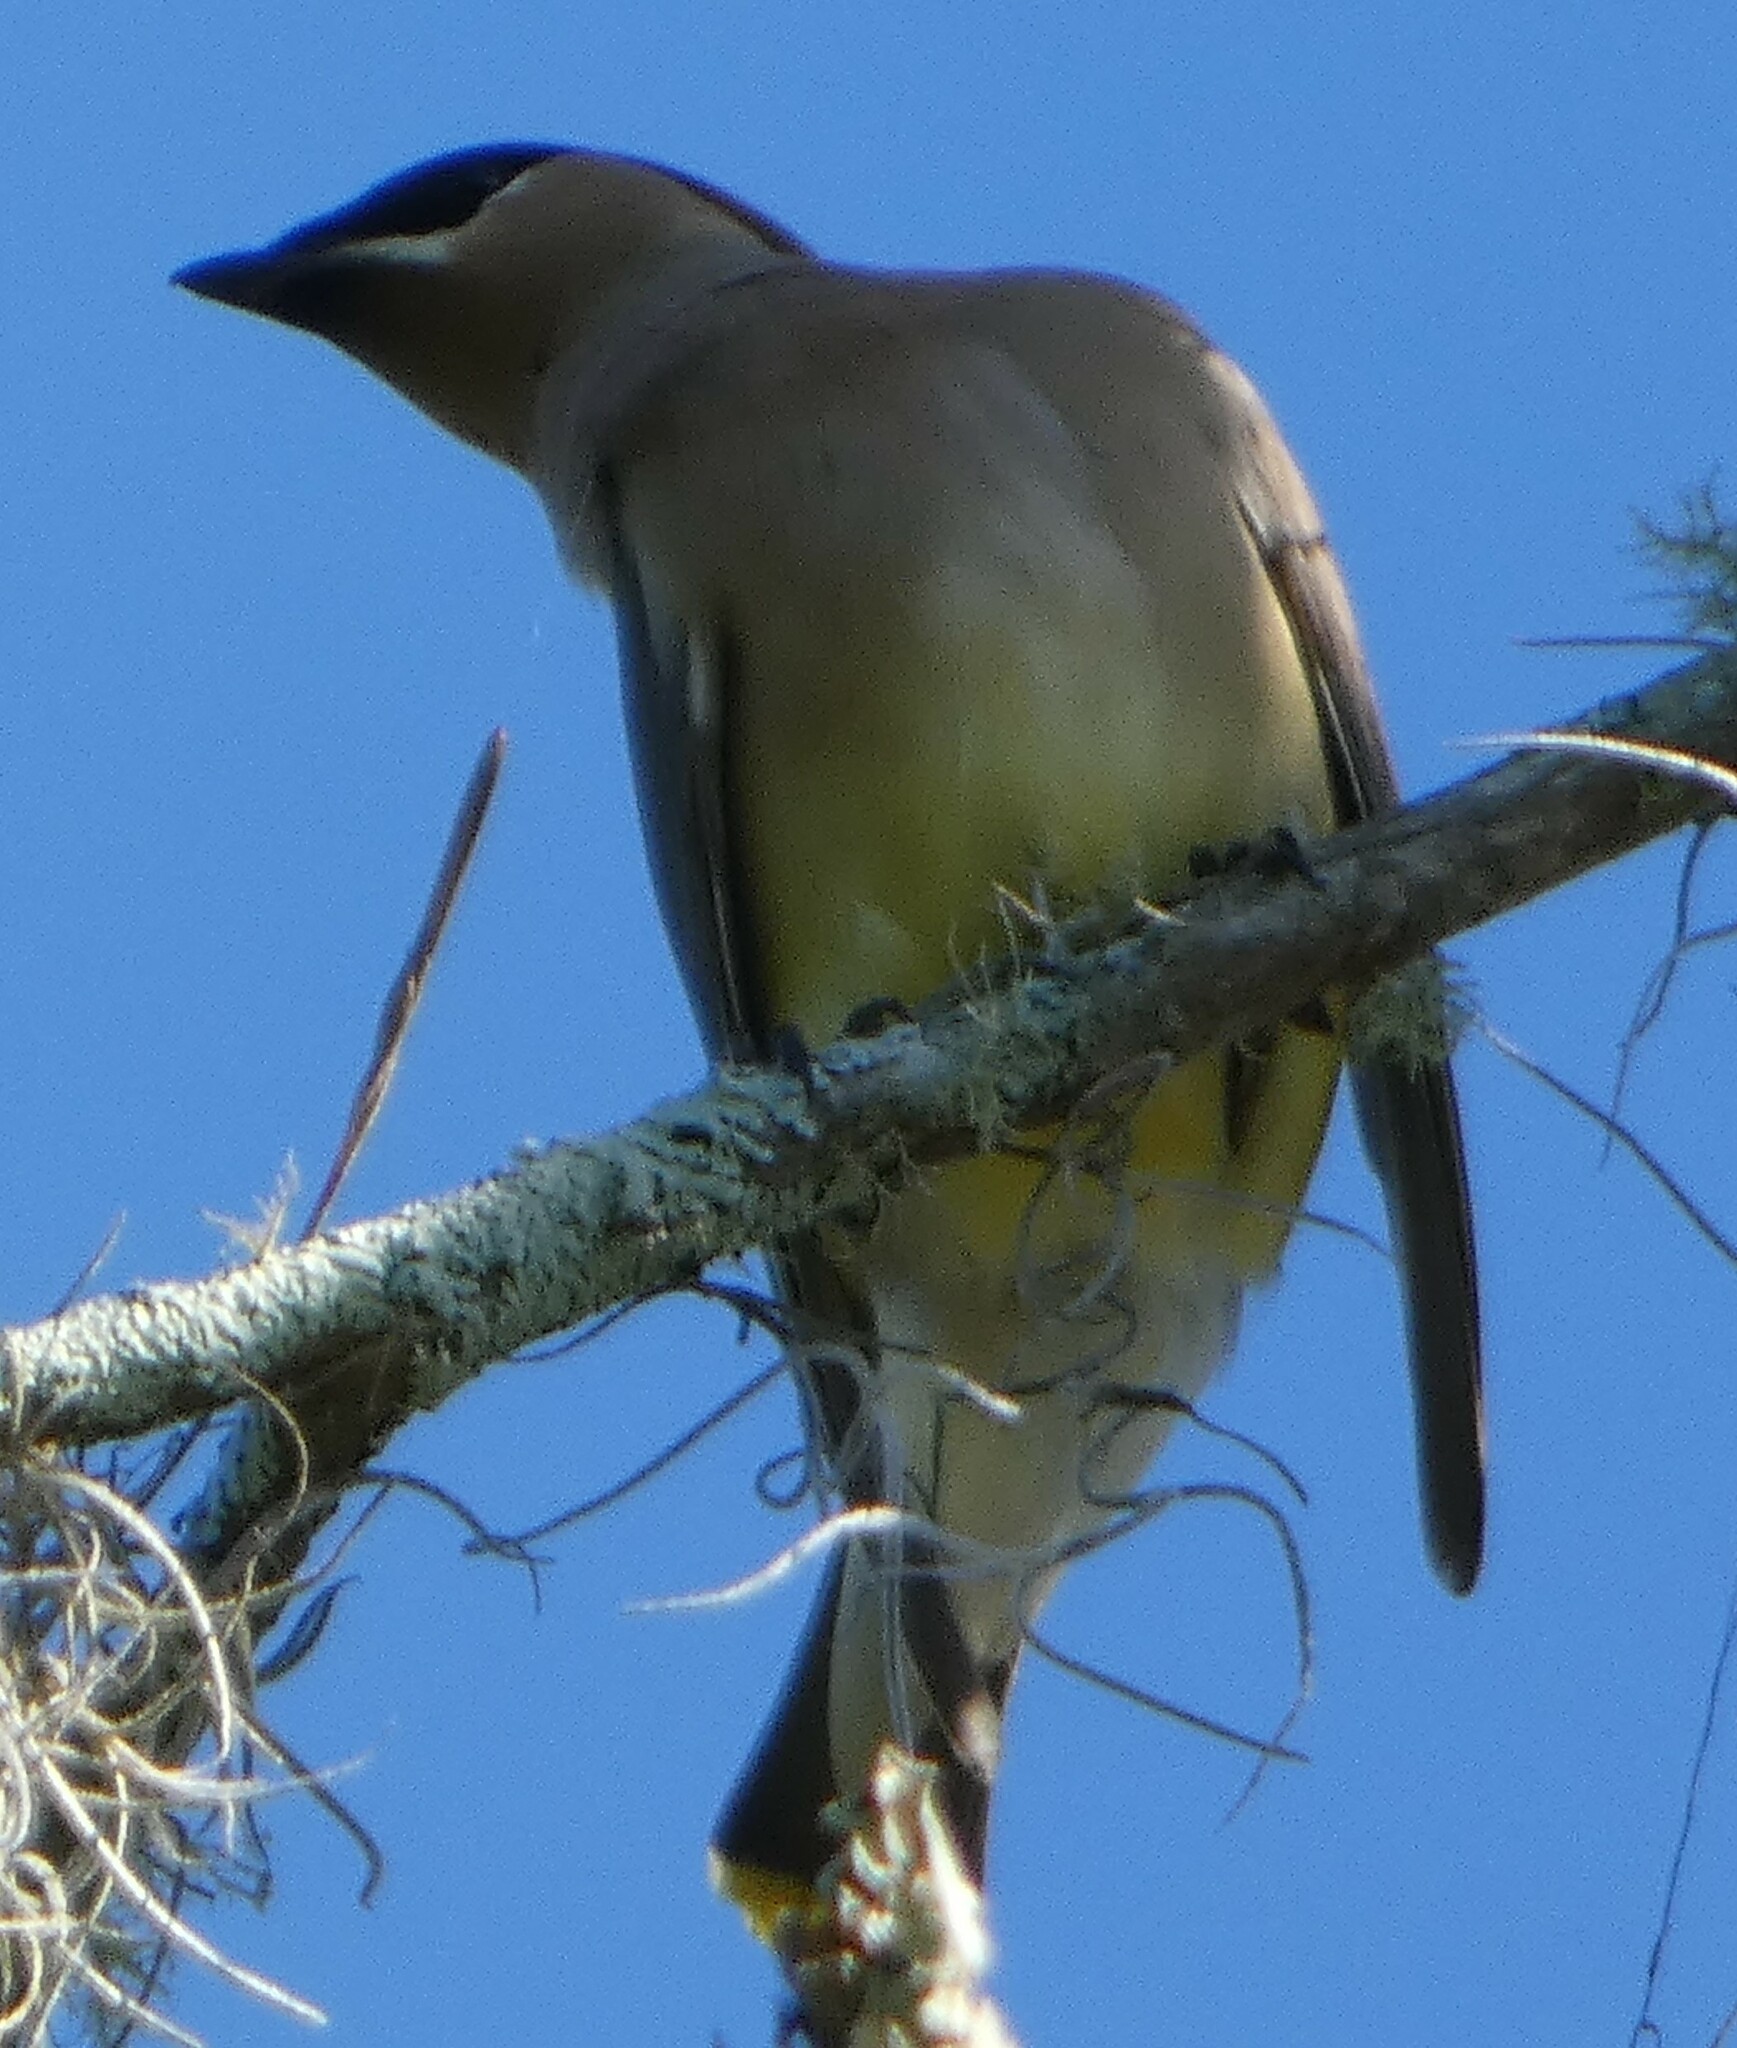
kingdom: Animalia
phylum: Chordata
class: Aves
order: Passeriformes
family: Bombycillidae
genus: Bombycilla
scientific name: Bombycilla cedrorum
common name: Cedar waxwing
